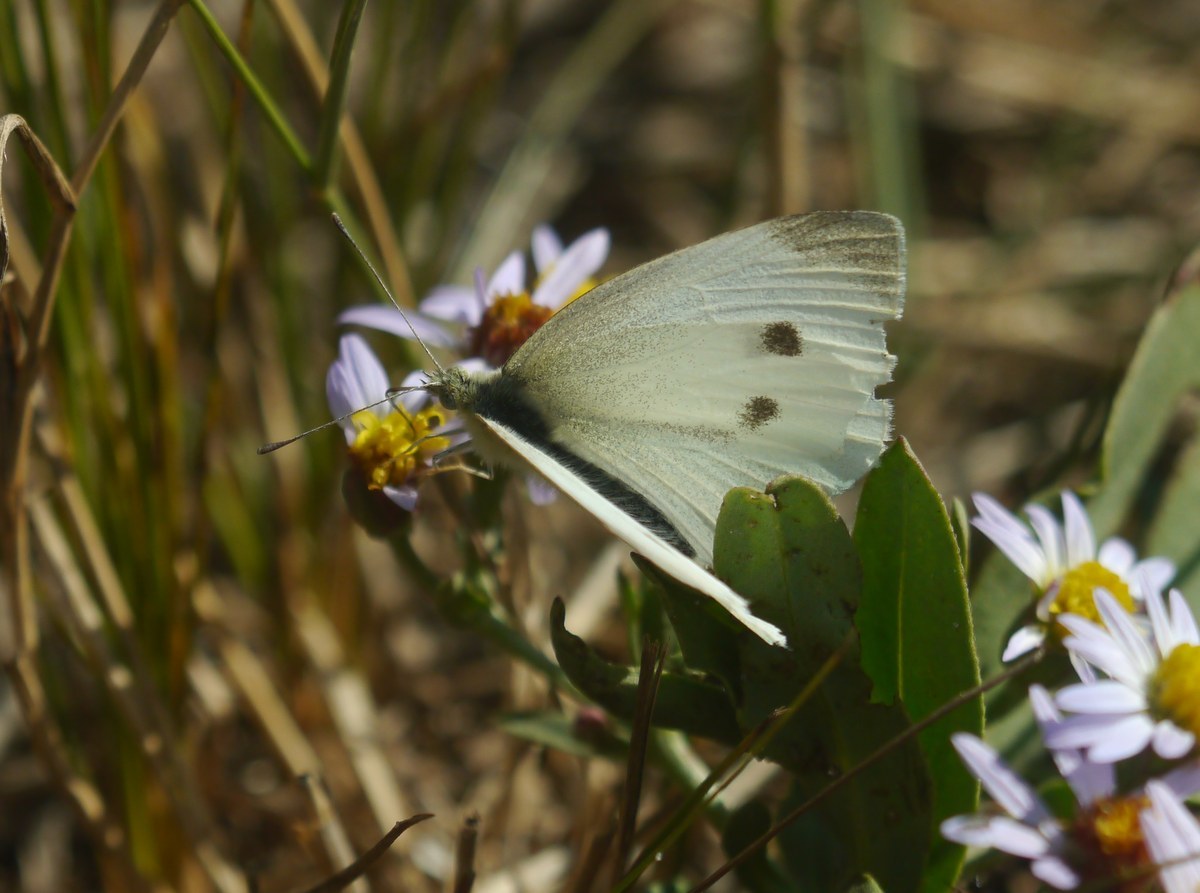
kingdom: Animalia
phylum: Arthropoda
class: Insecta
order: Lepidoptera
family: Pieridae
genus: Pieris
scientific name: Pieris rapae
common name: Small white
